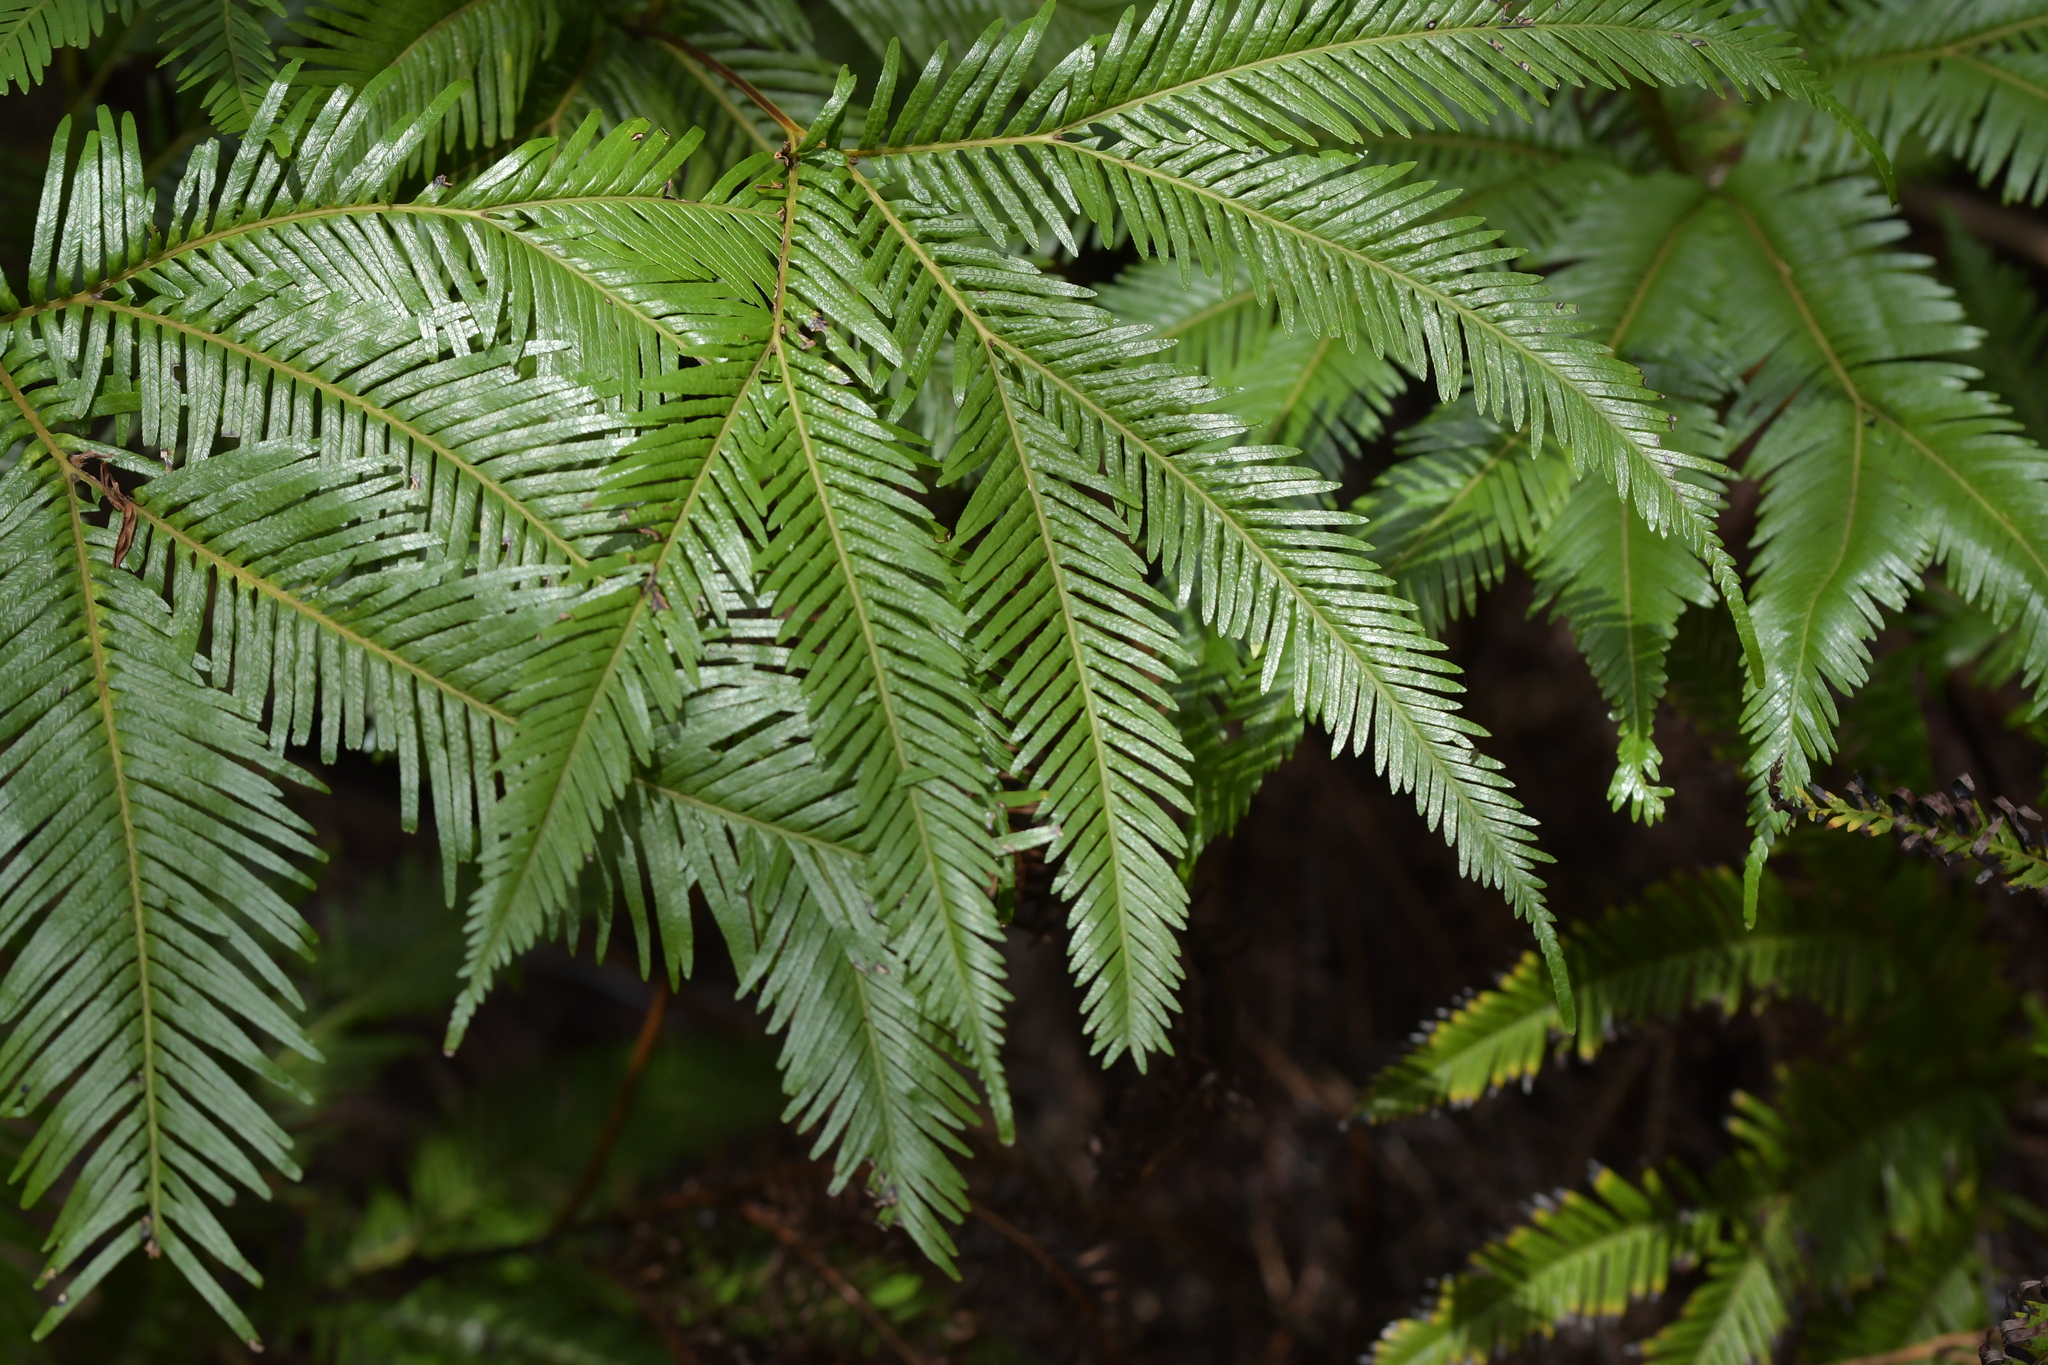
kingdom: Plantae
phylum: Tracheophyta
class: Polypodiopsida
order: Gleicheniales
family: Gleicheniaceae
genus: Sticherus
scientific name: Sticherus flabellatus
